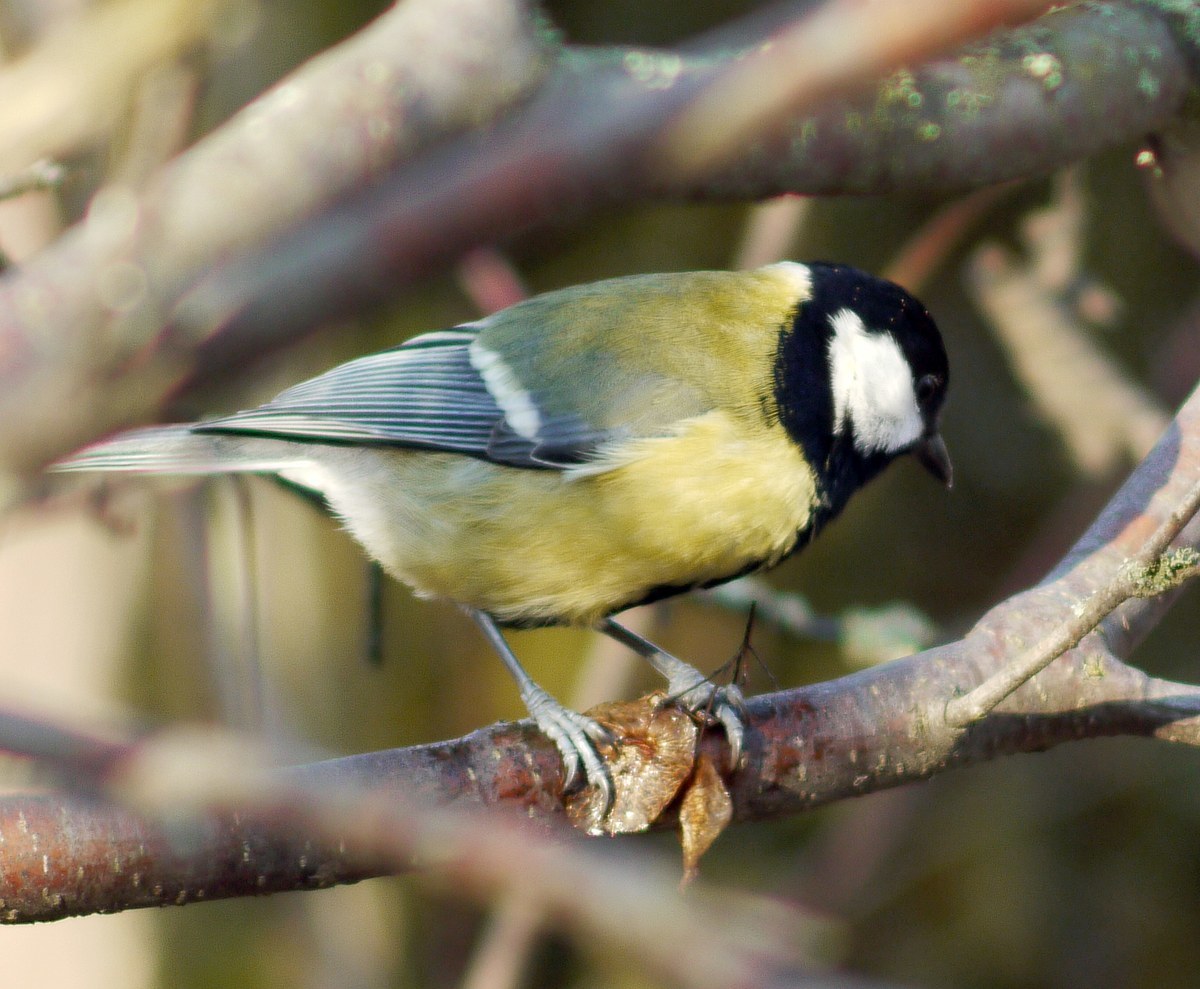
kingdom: Animalia
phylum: Chordata
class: Aves
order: Passeriformes
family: Paridae
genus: Parus
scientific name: Parus major
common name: Great tit
